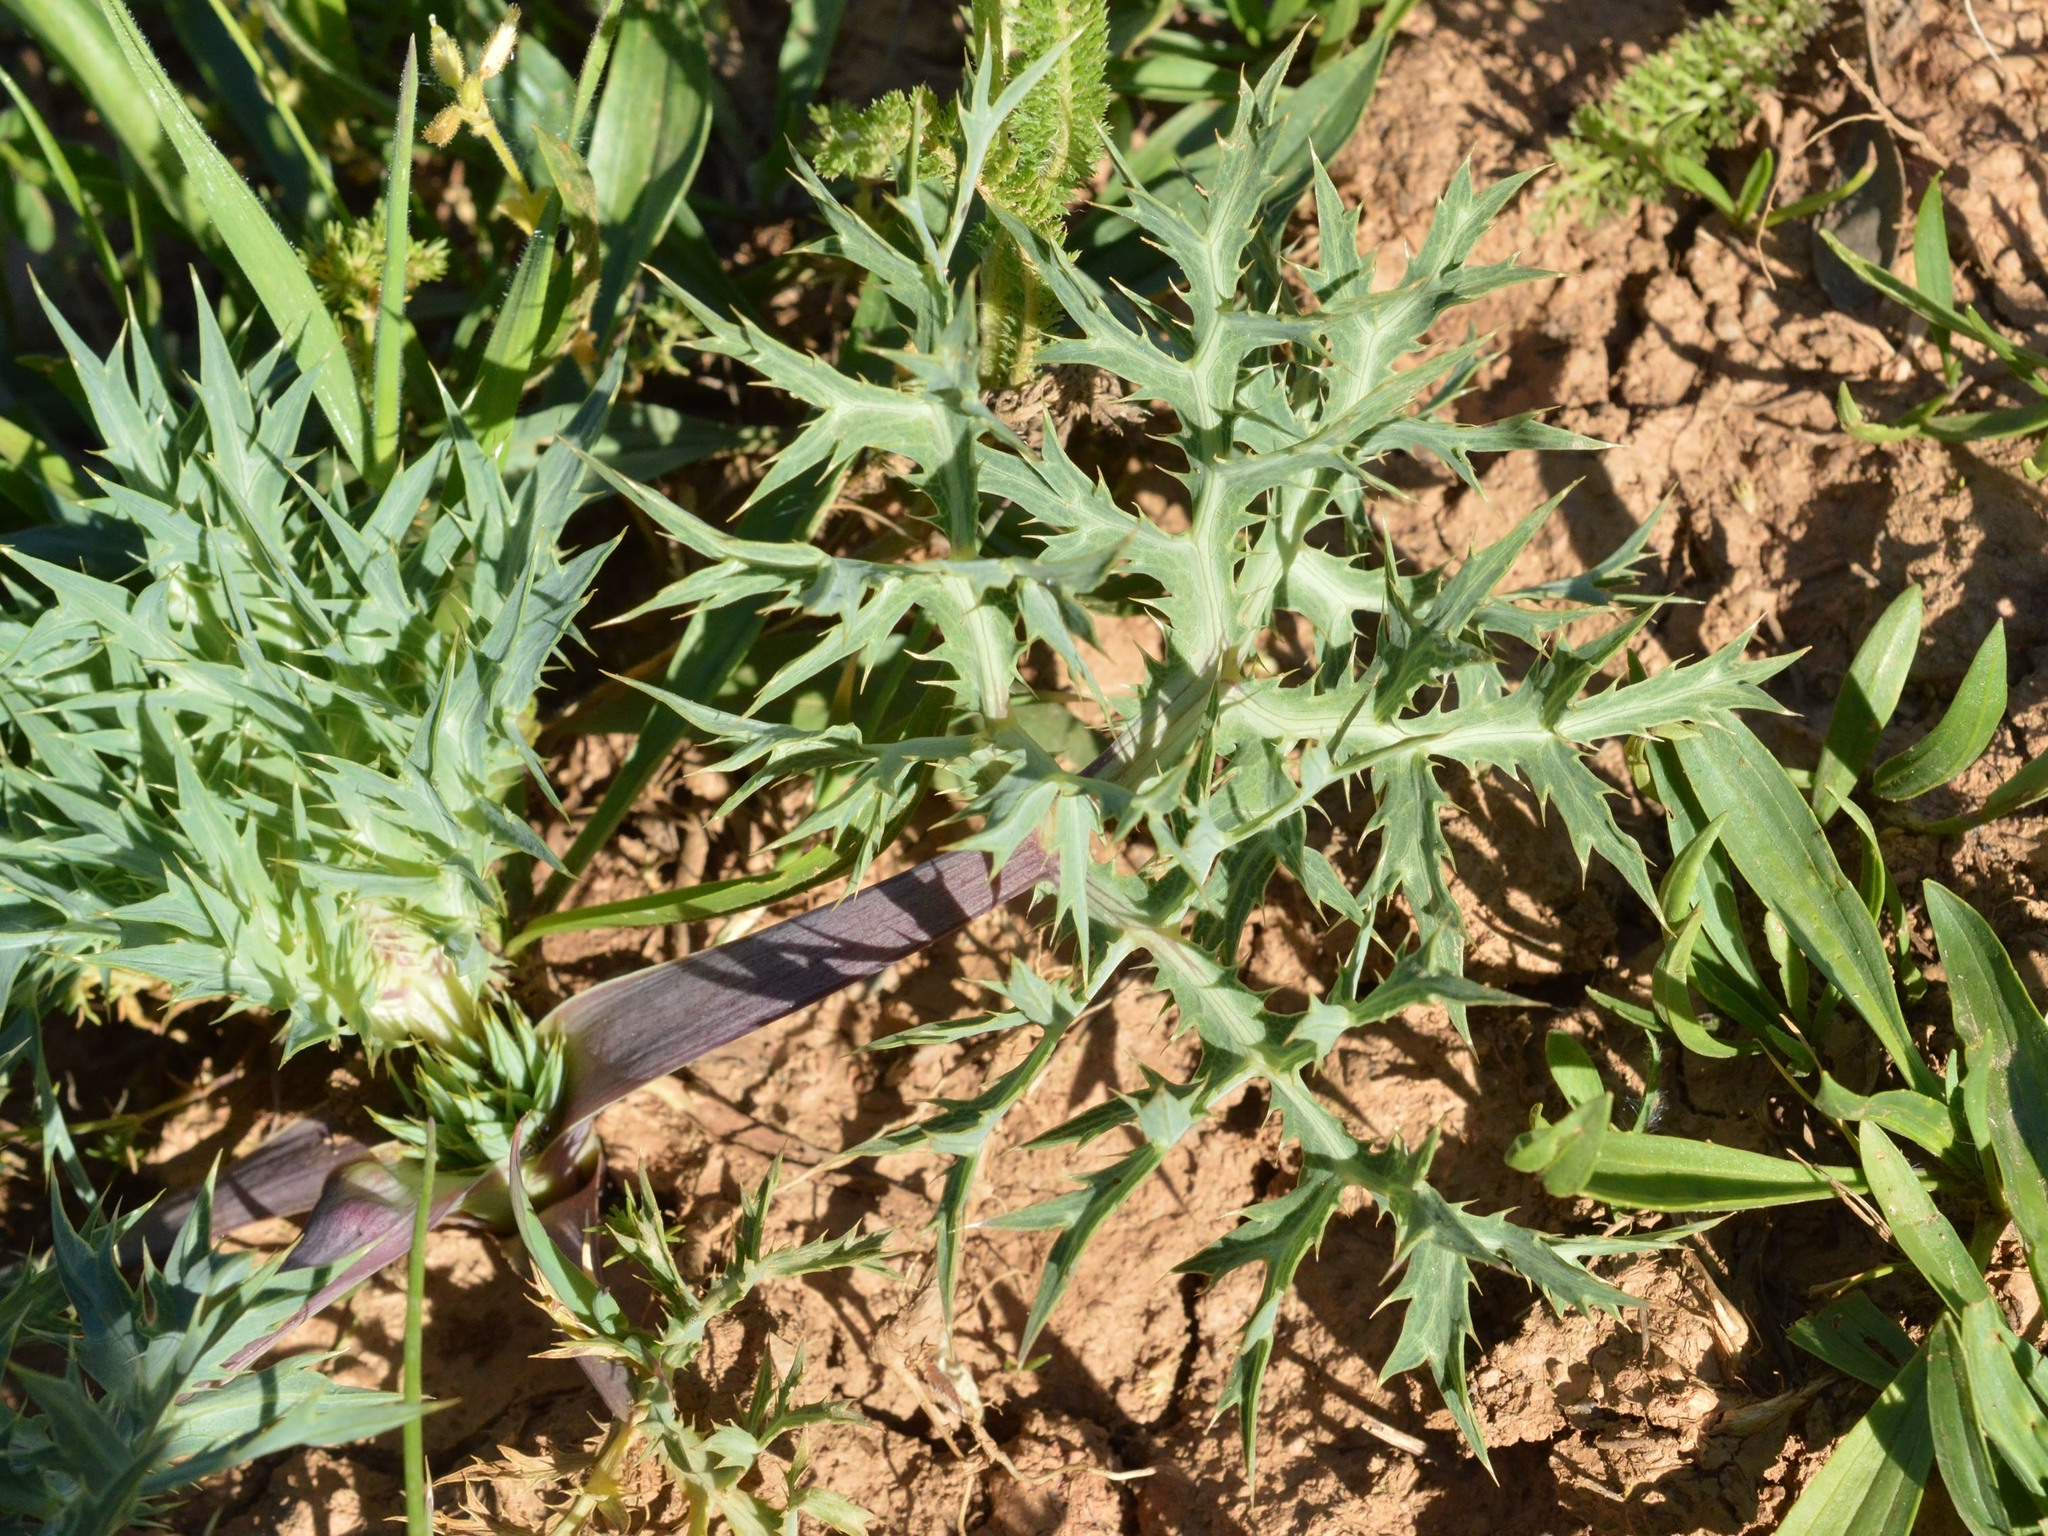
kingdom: Plantae
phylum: Tracheophyta
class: Magnoliopsida
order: Apiales
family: Apiaceae
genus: Eryngium
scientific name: Eryngium campestre
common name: Field eryngo
